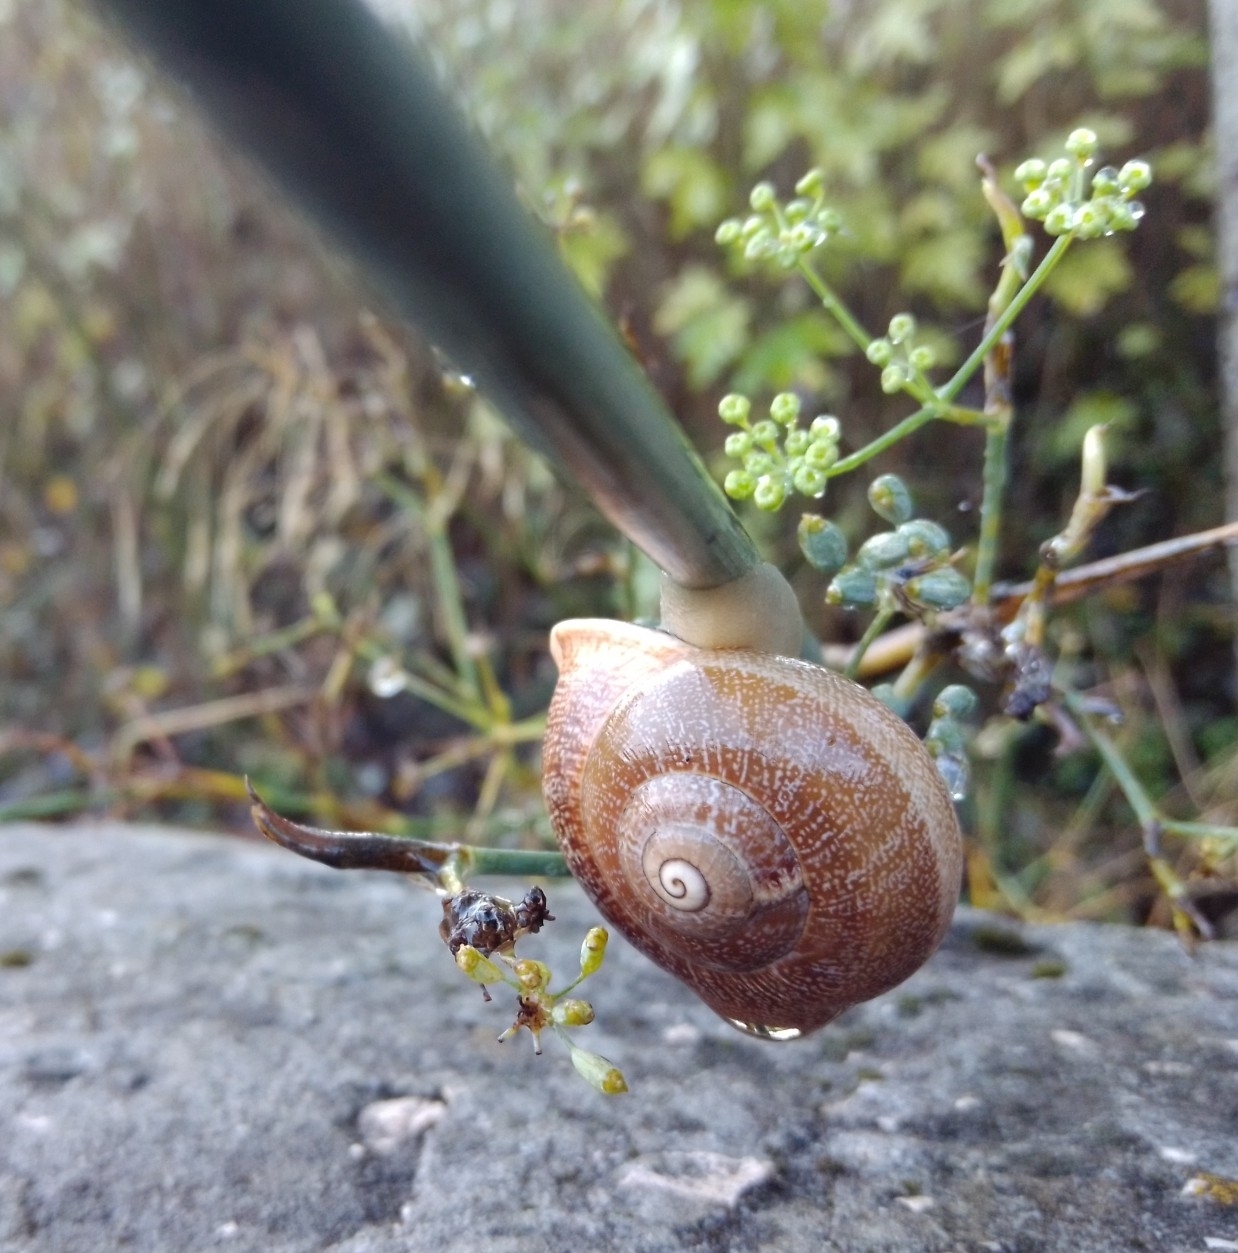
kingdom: Animalia
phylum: Mollusca
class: Gastropoda
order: Stylommatophora
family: Helicidae
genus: Otala
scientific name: Otala lactea
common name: Milk snail
